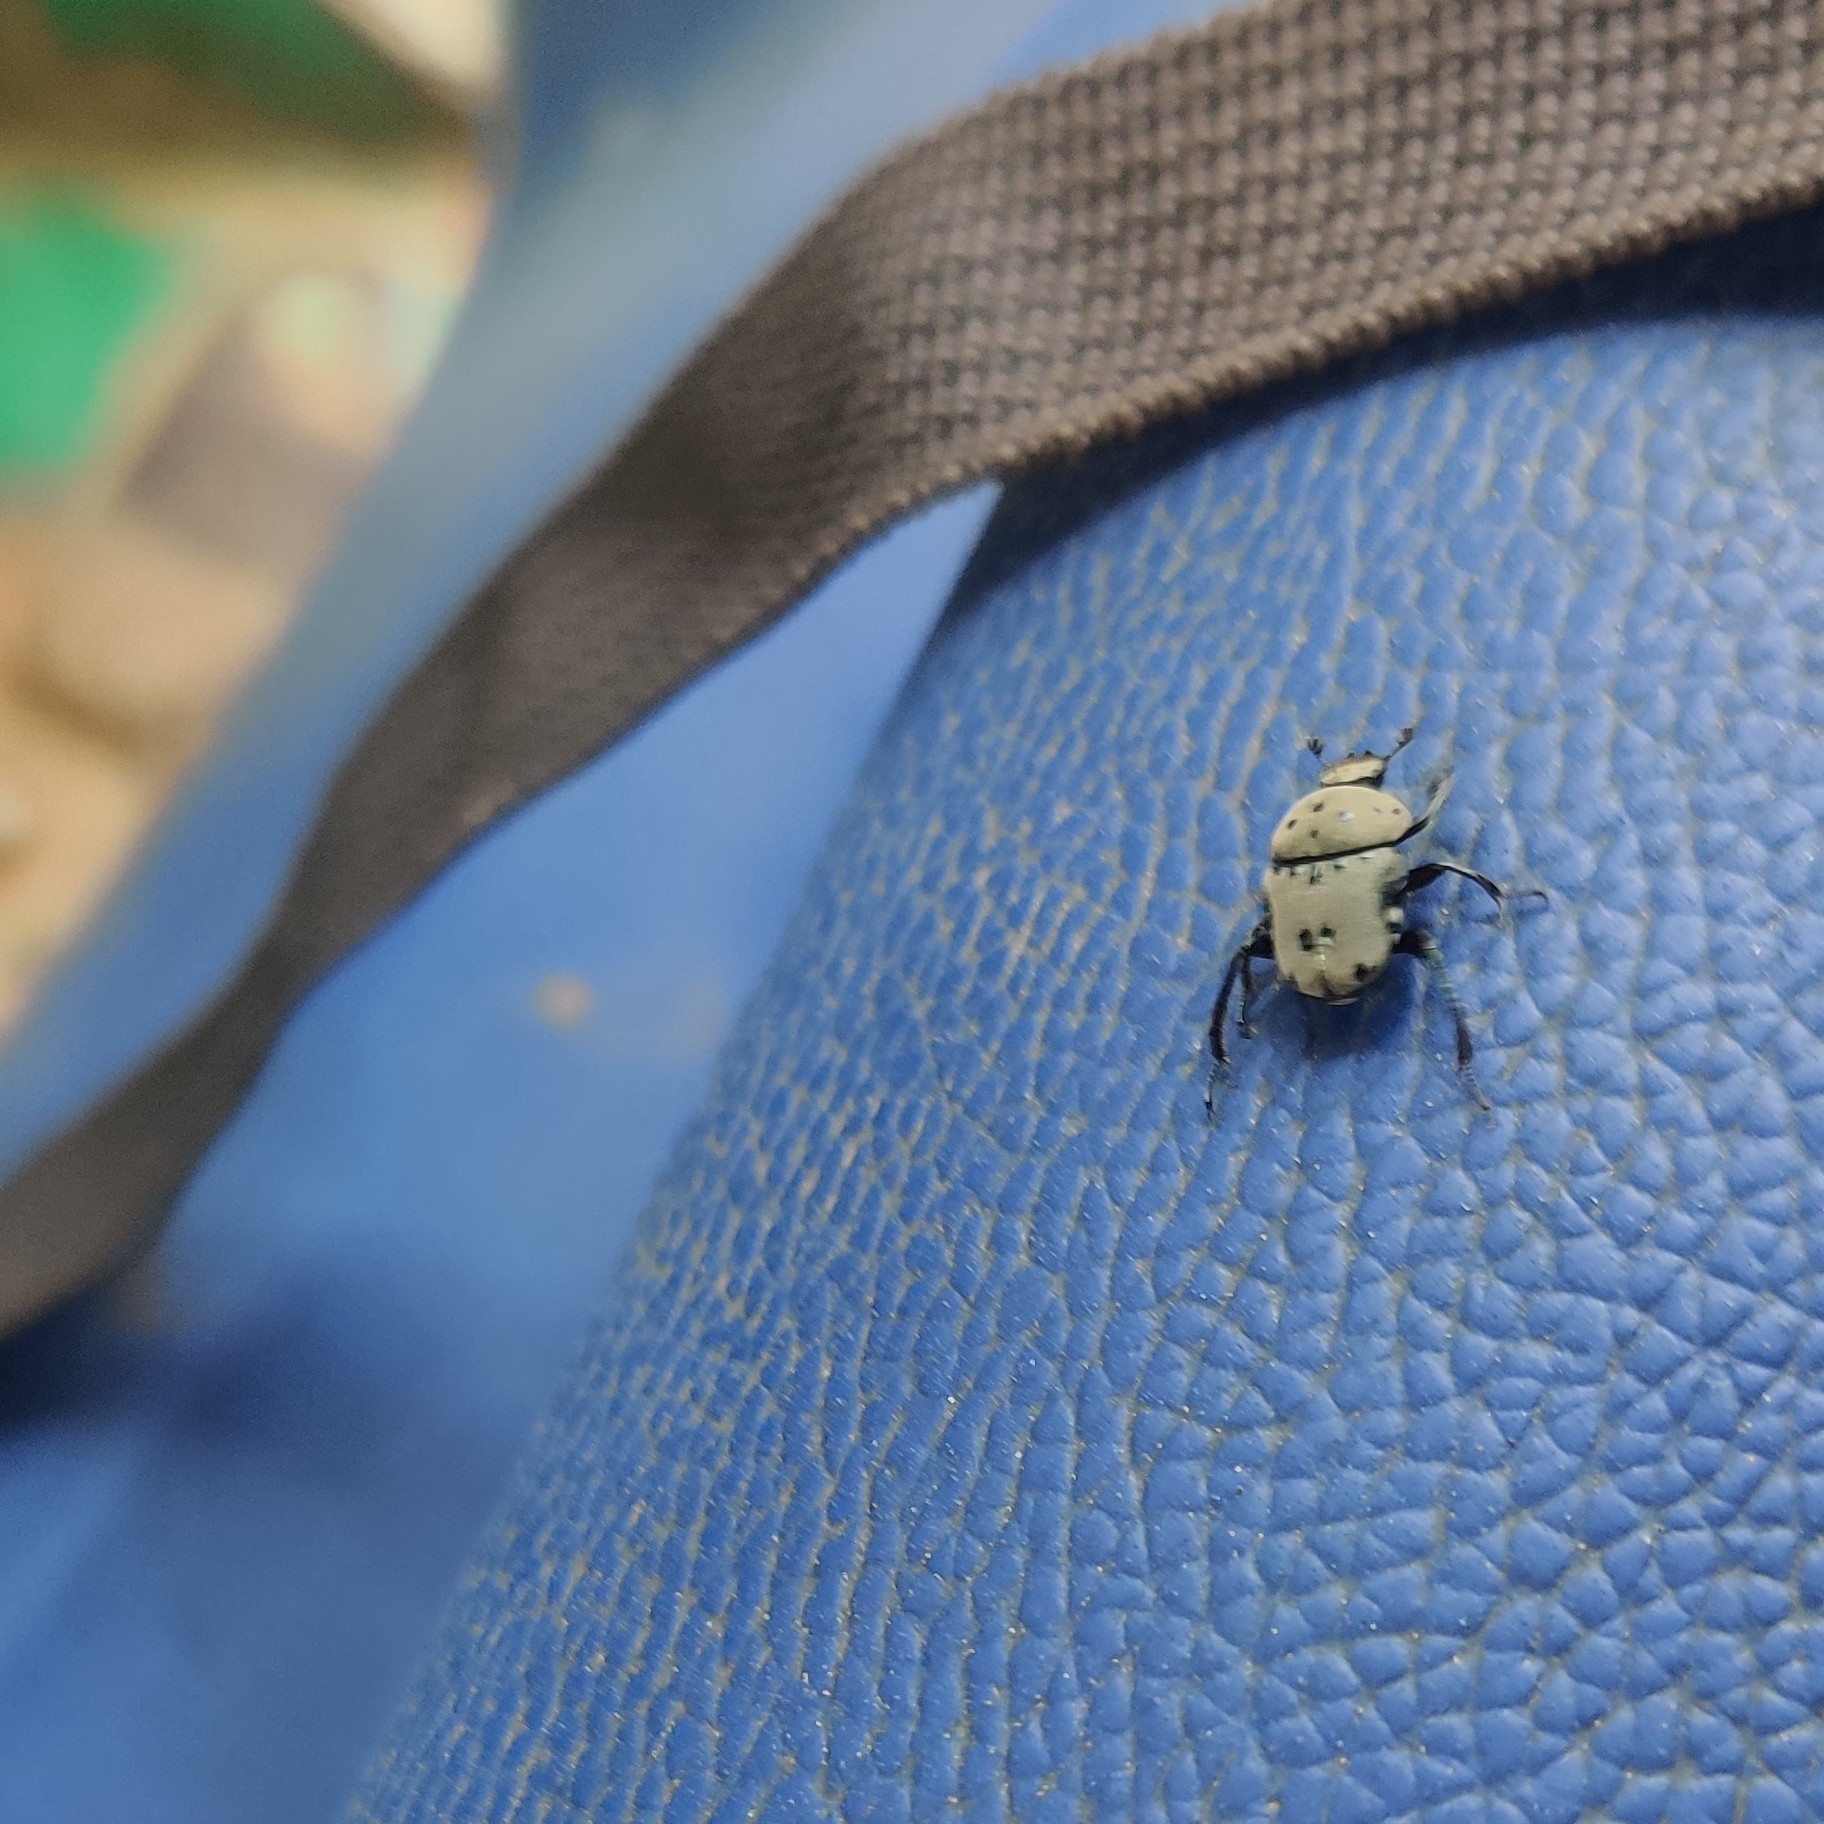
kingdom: Animalia
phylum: Arthropoda
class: Insecta
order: Coleoptera
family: Scarabaeidae
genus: Gymnopleurus
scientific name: Gymnopleurus miliaris
